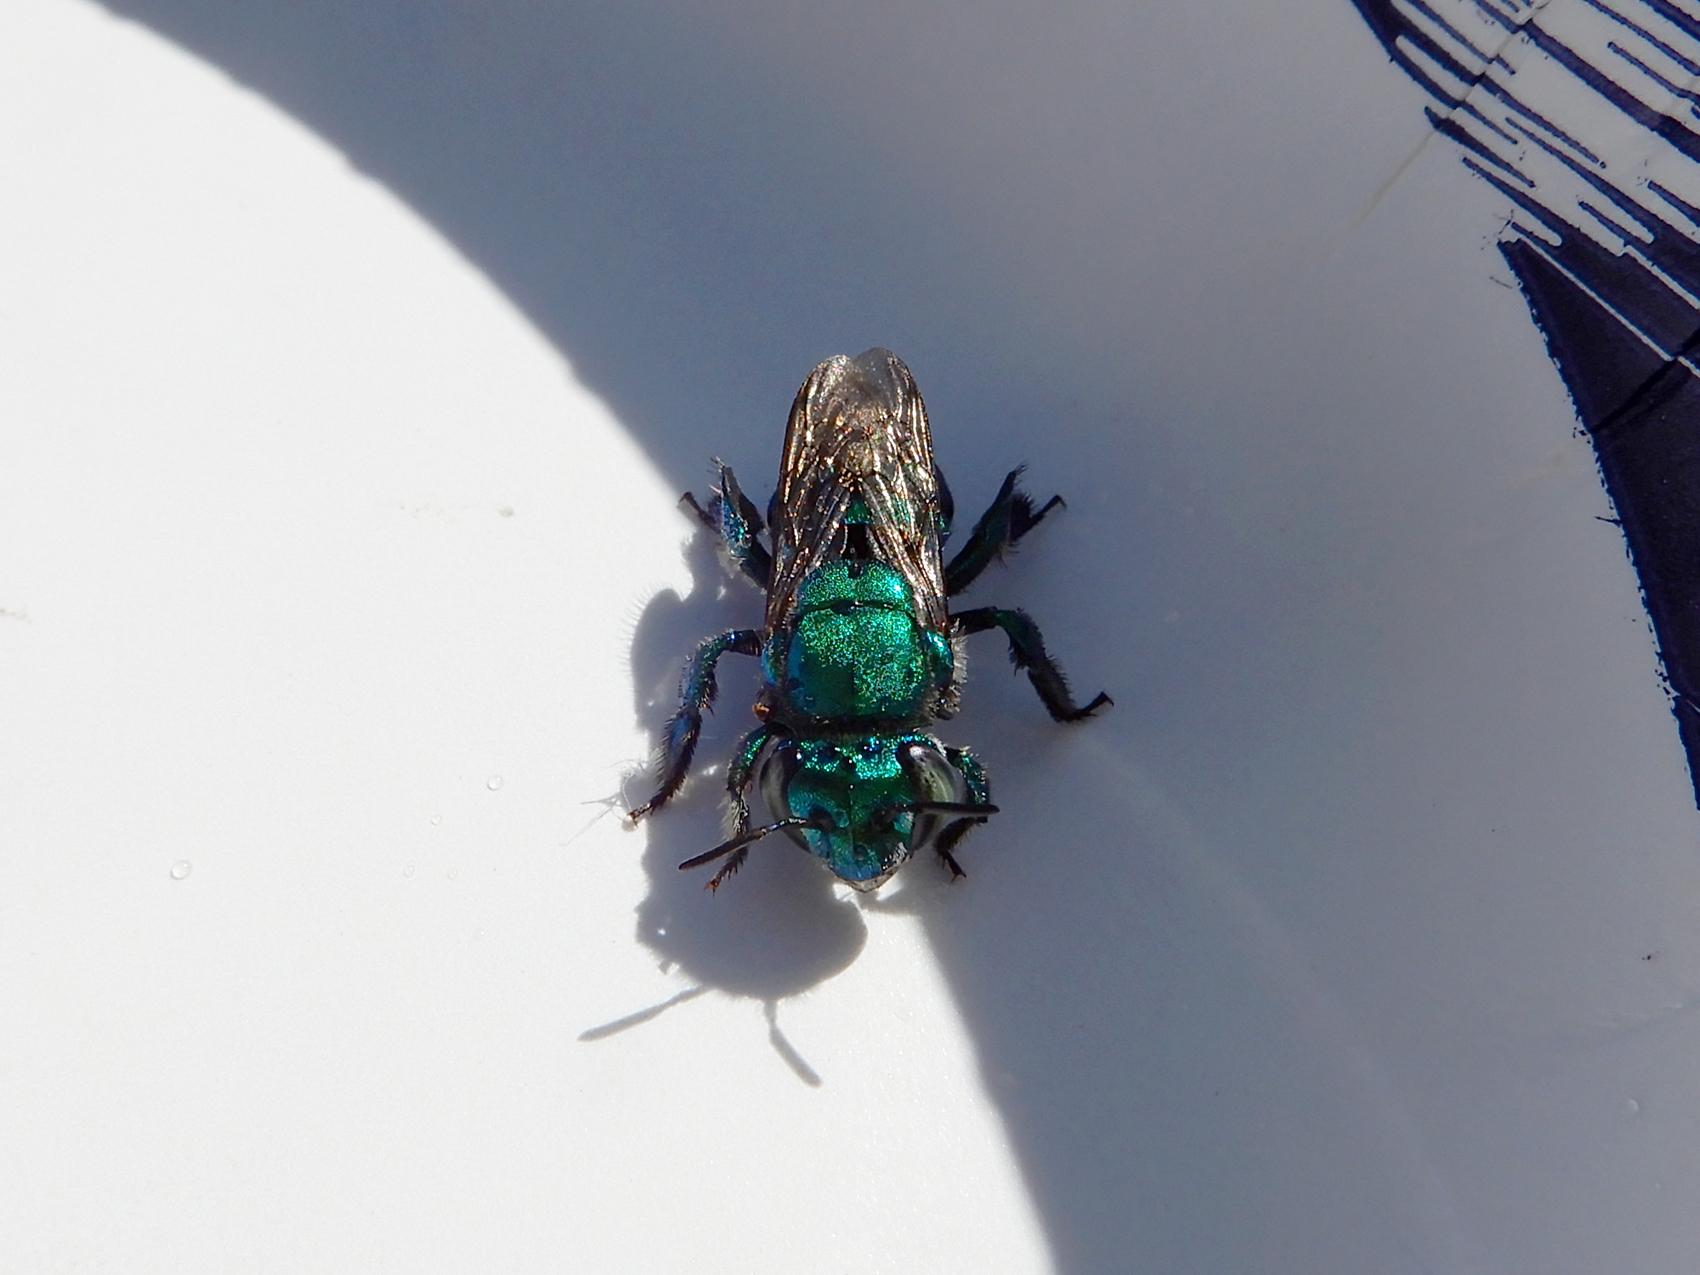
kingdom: Animalia
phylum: Arthropoda
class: Insecta
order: Hymenoptera
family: Apidae
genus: Euglossa
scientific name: Euglossa dilemma
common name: Green orchid bee
